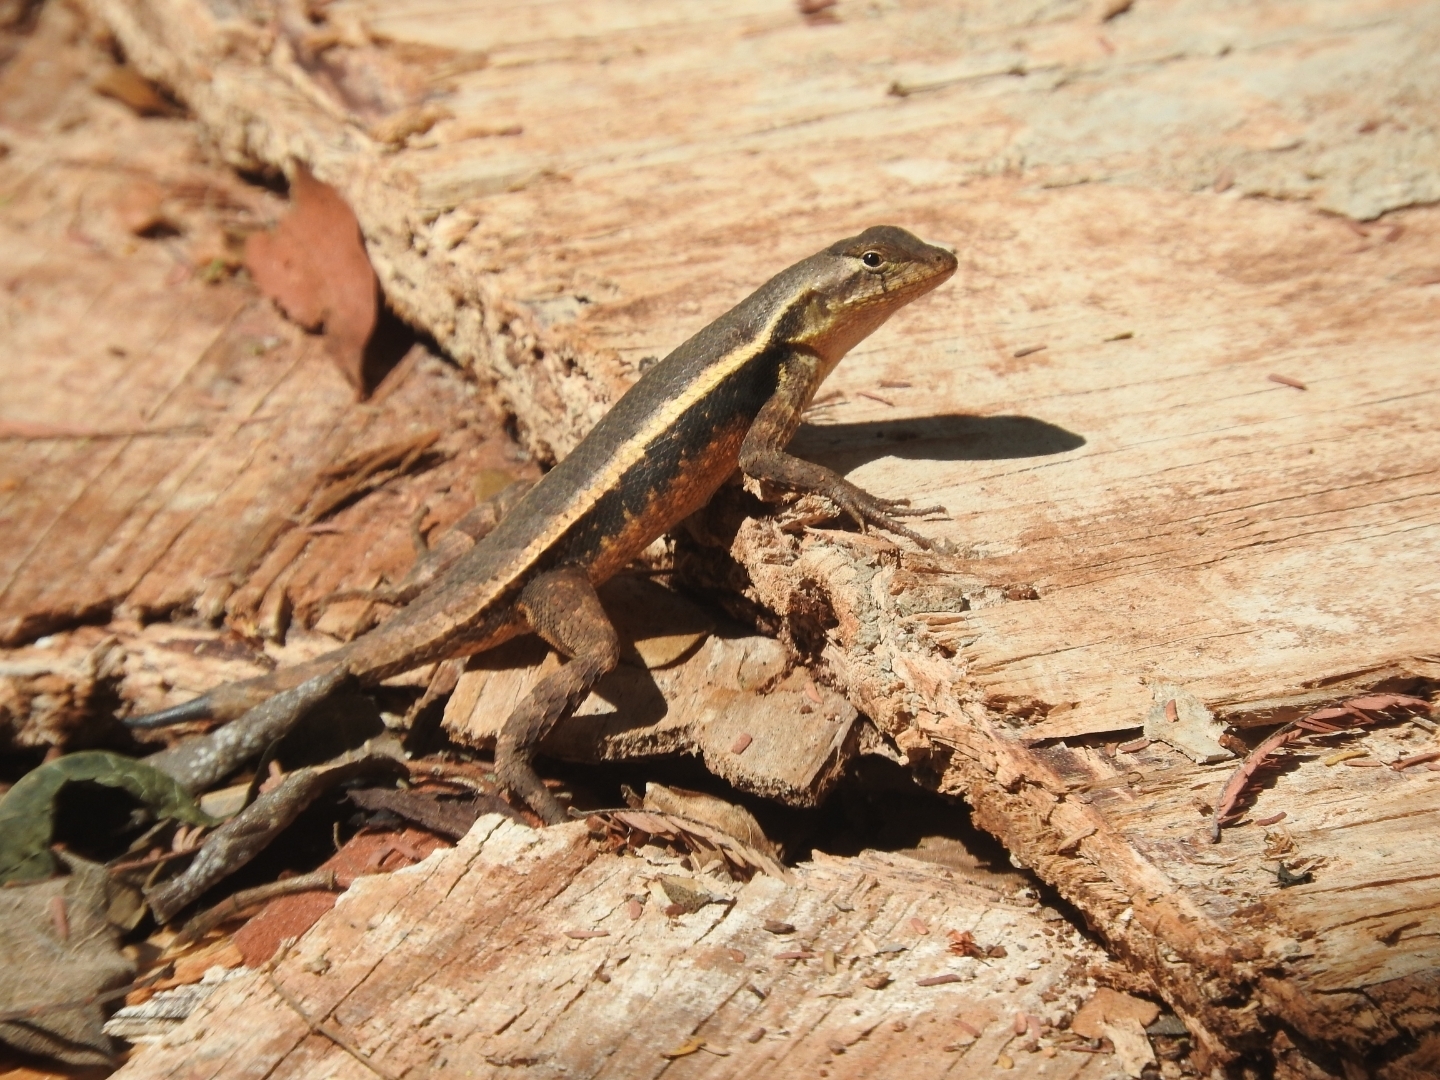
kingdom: Animalia
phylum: Chordata
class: Squamata
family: Phrynosomatidae
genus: Sceloporus
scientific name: Sceloporus chrysostictus
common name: Yellow-spotted spiny lizard
